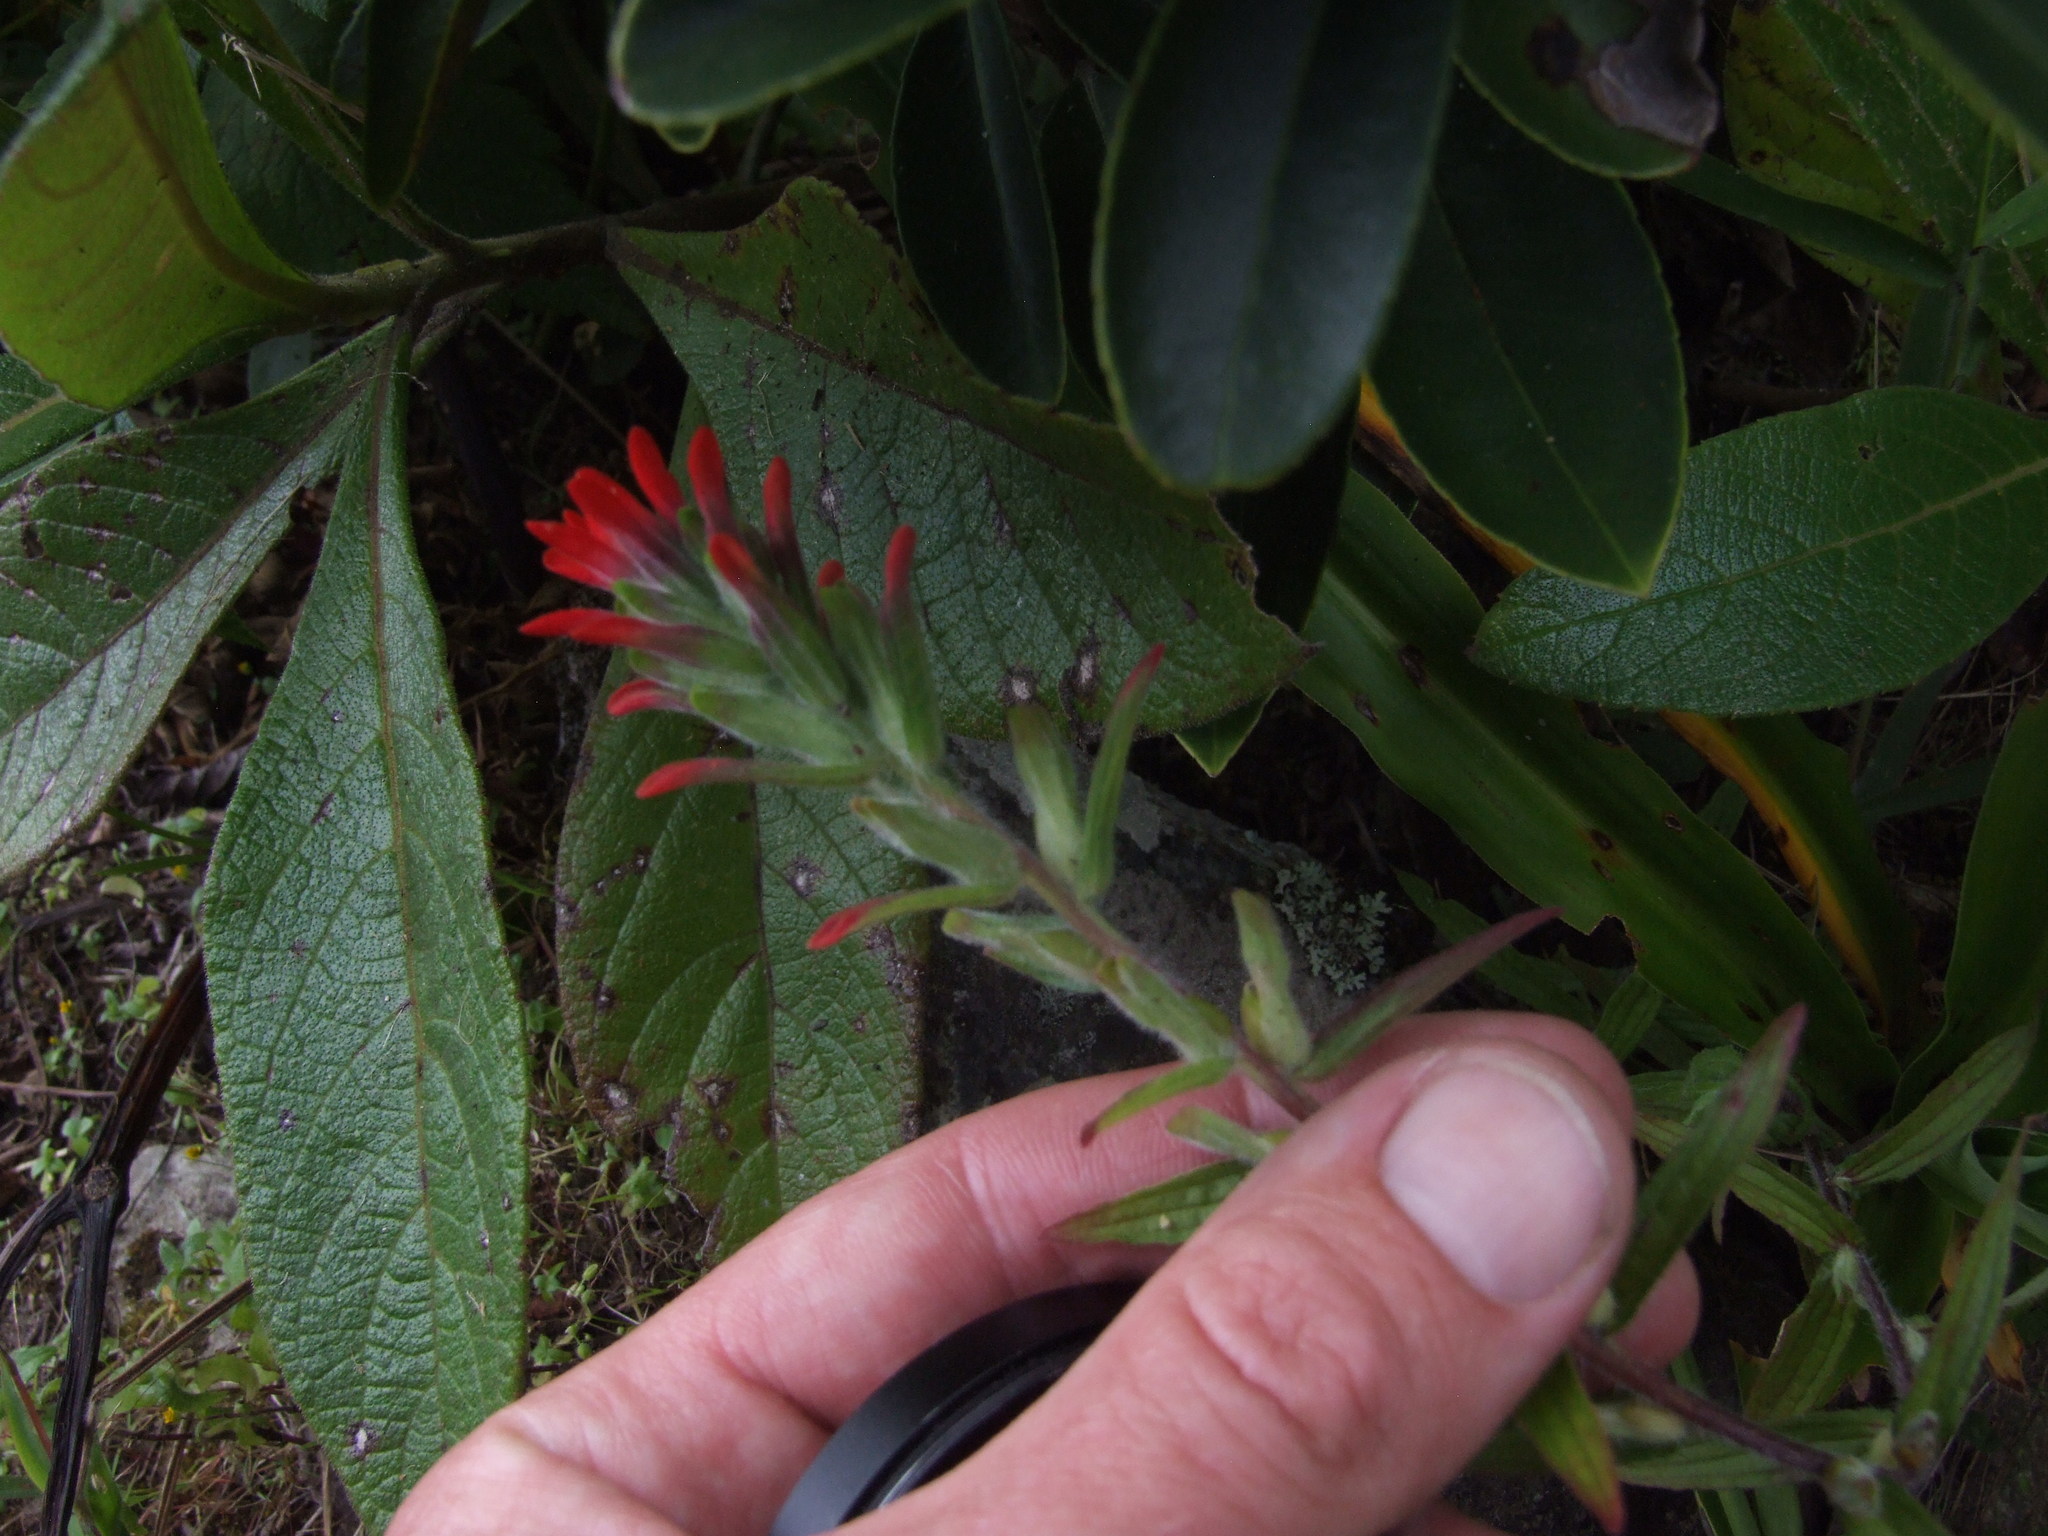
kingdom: Plantae
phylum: Tracheophyta
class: Magnoliopsida
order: Lamiales
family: Orobanchaceae
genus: Castilleja
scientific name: Castilleja arvensis
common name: Indian paintbrush
